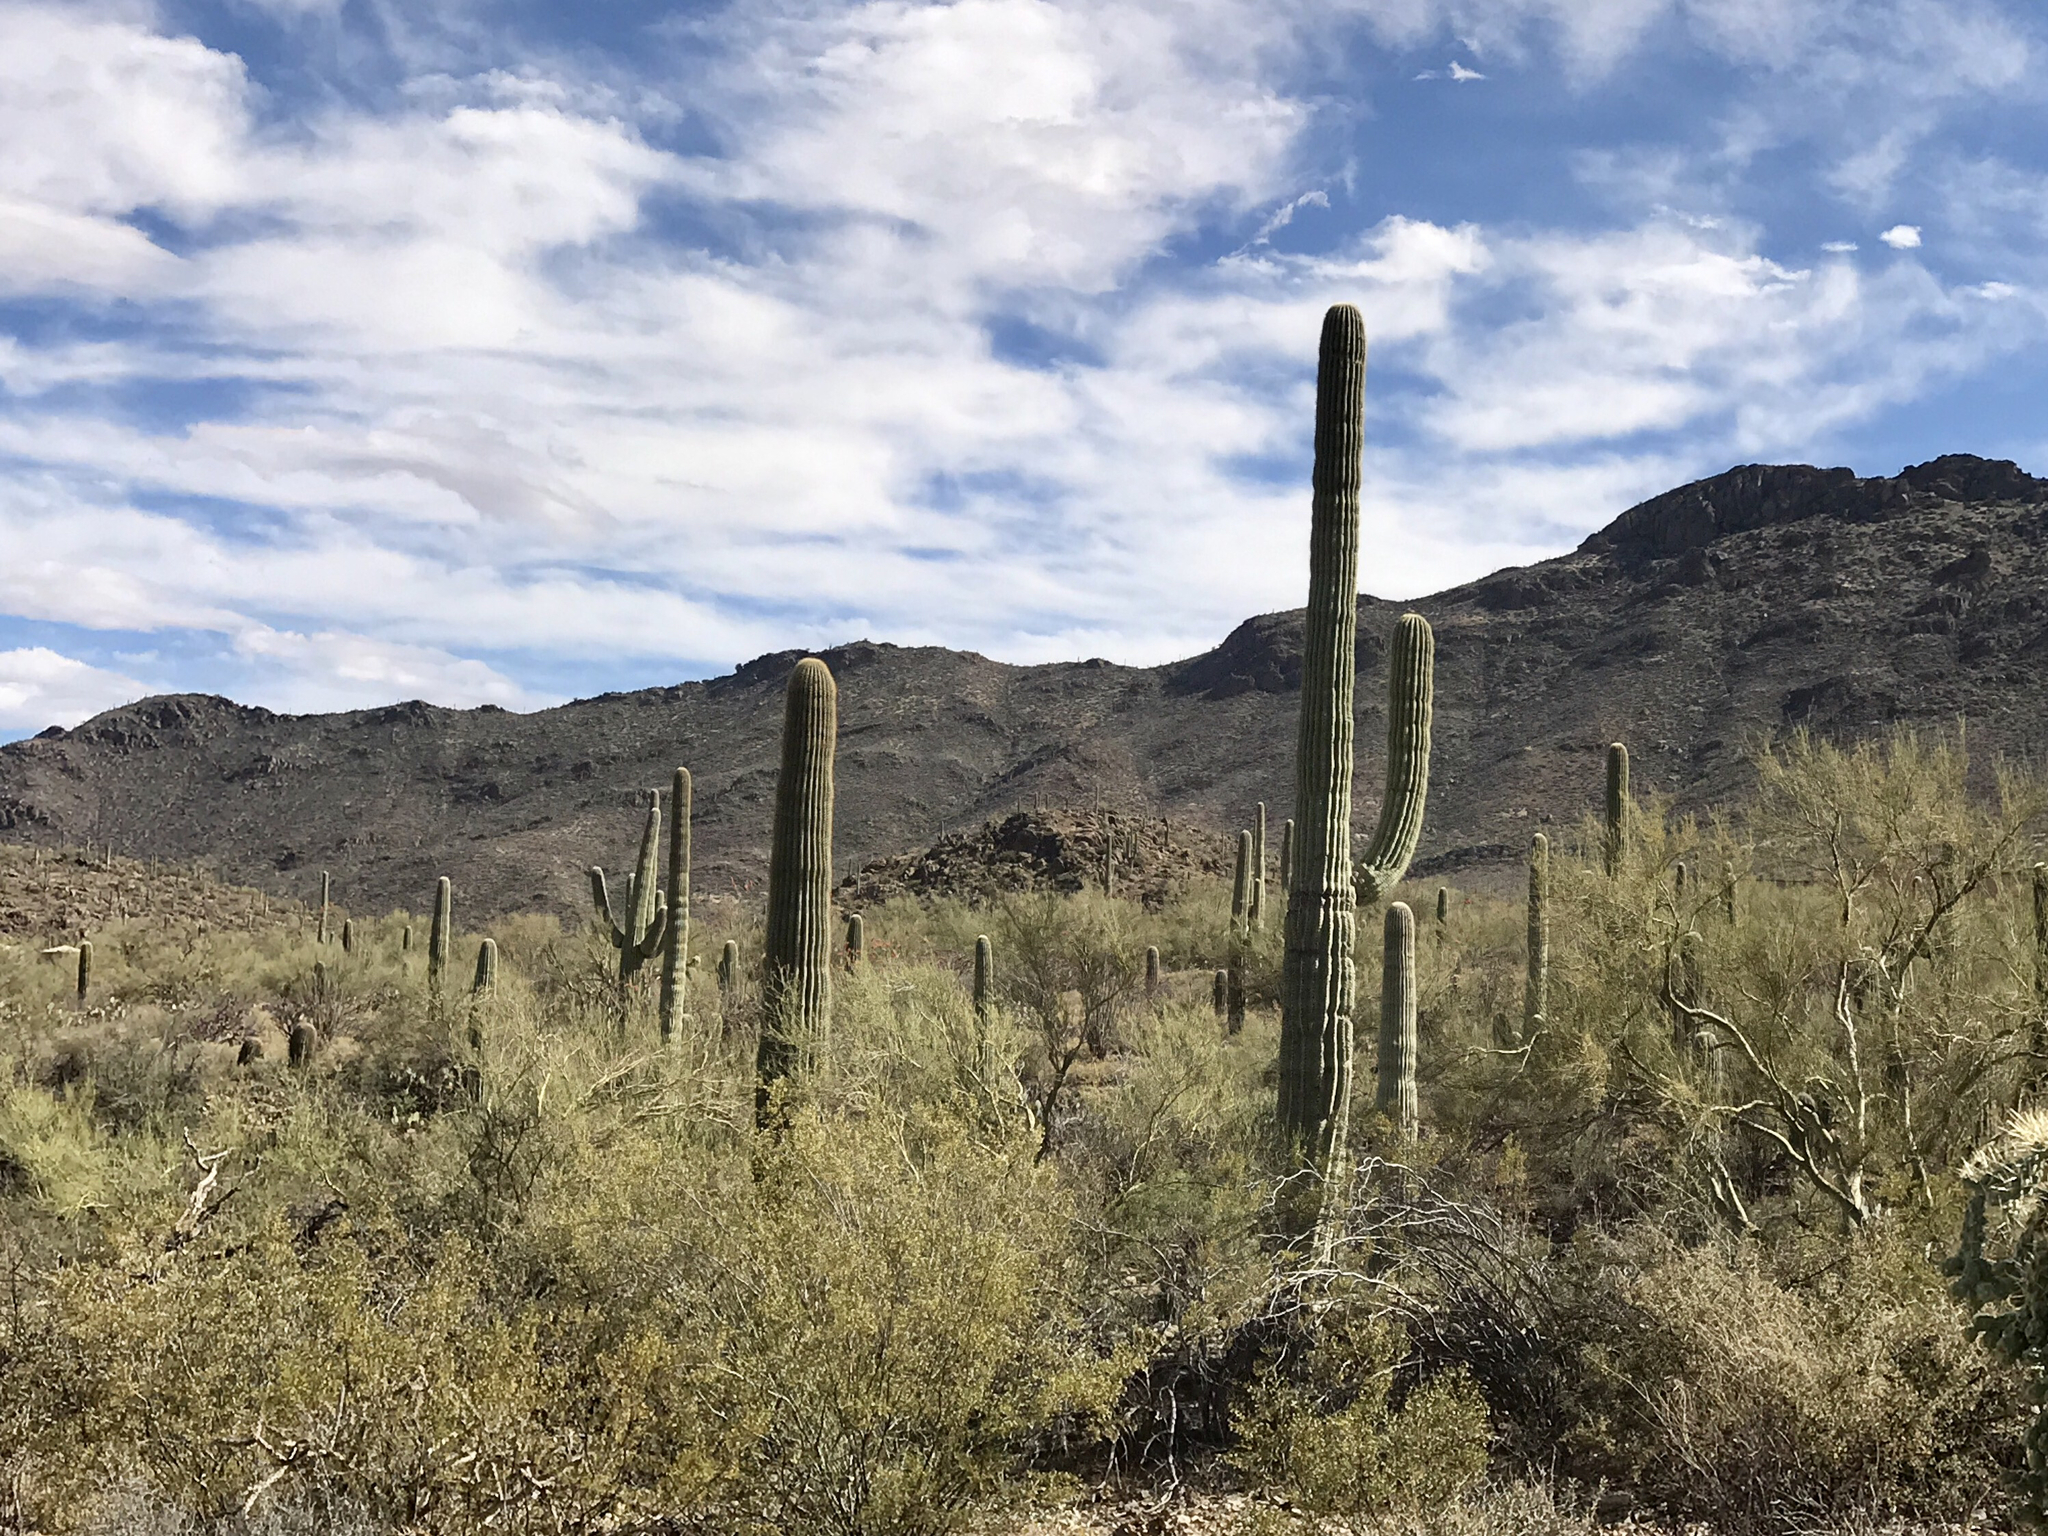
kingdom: Plantae
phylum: Tracheophyta
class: Magnoliopsida
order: Caryophyllales
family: Cactaceae
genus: Carnegiea
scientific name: Carnegiea gigantea
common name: Saguaro
